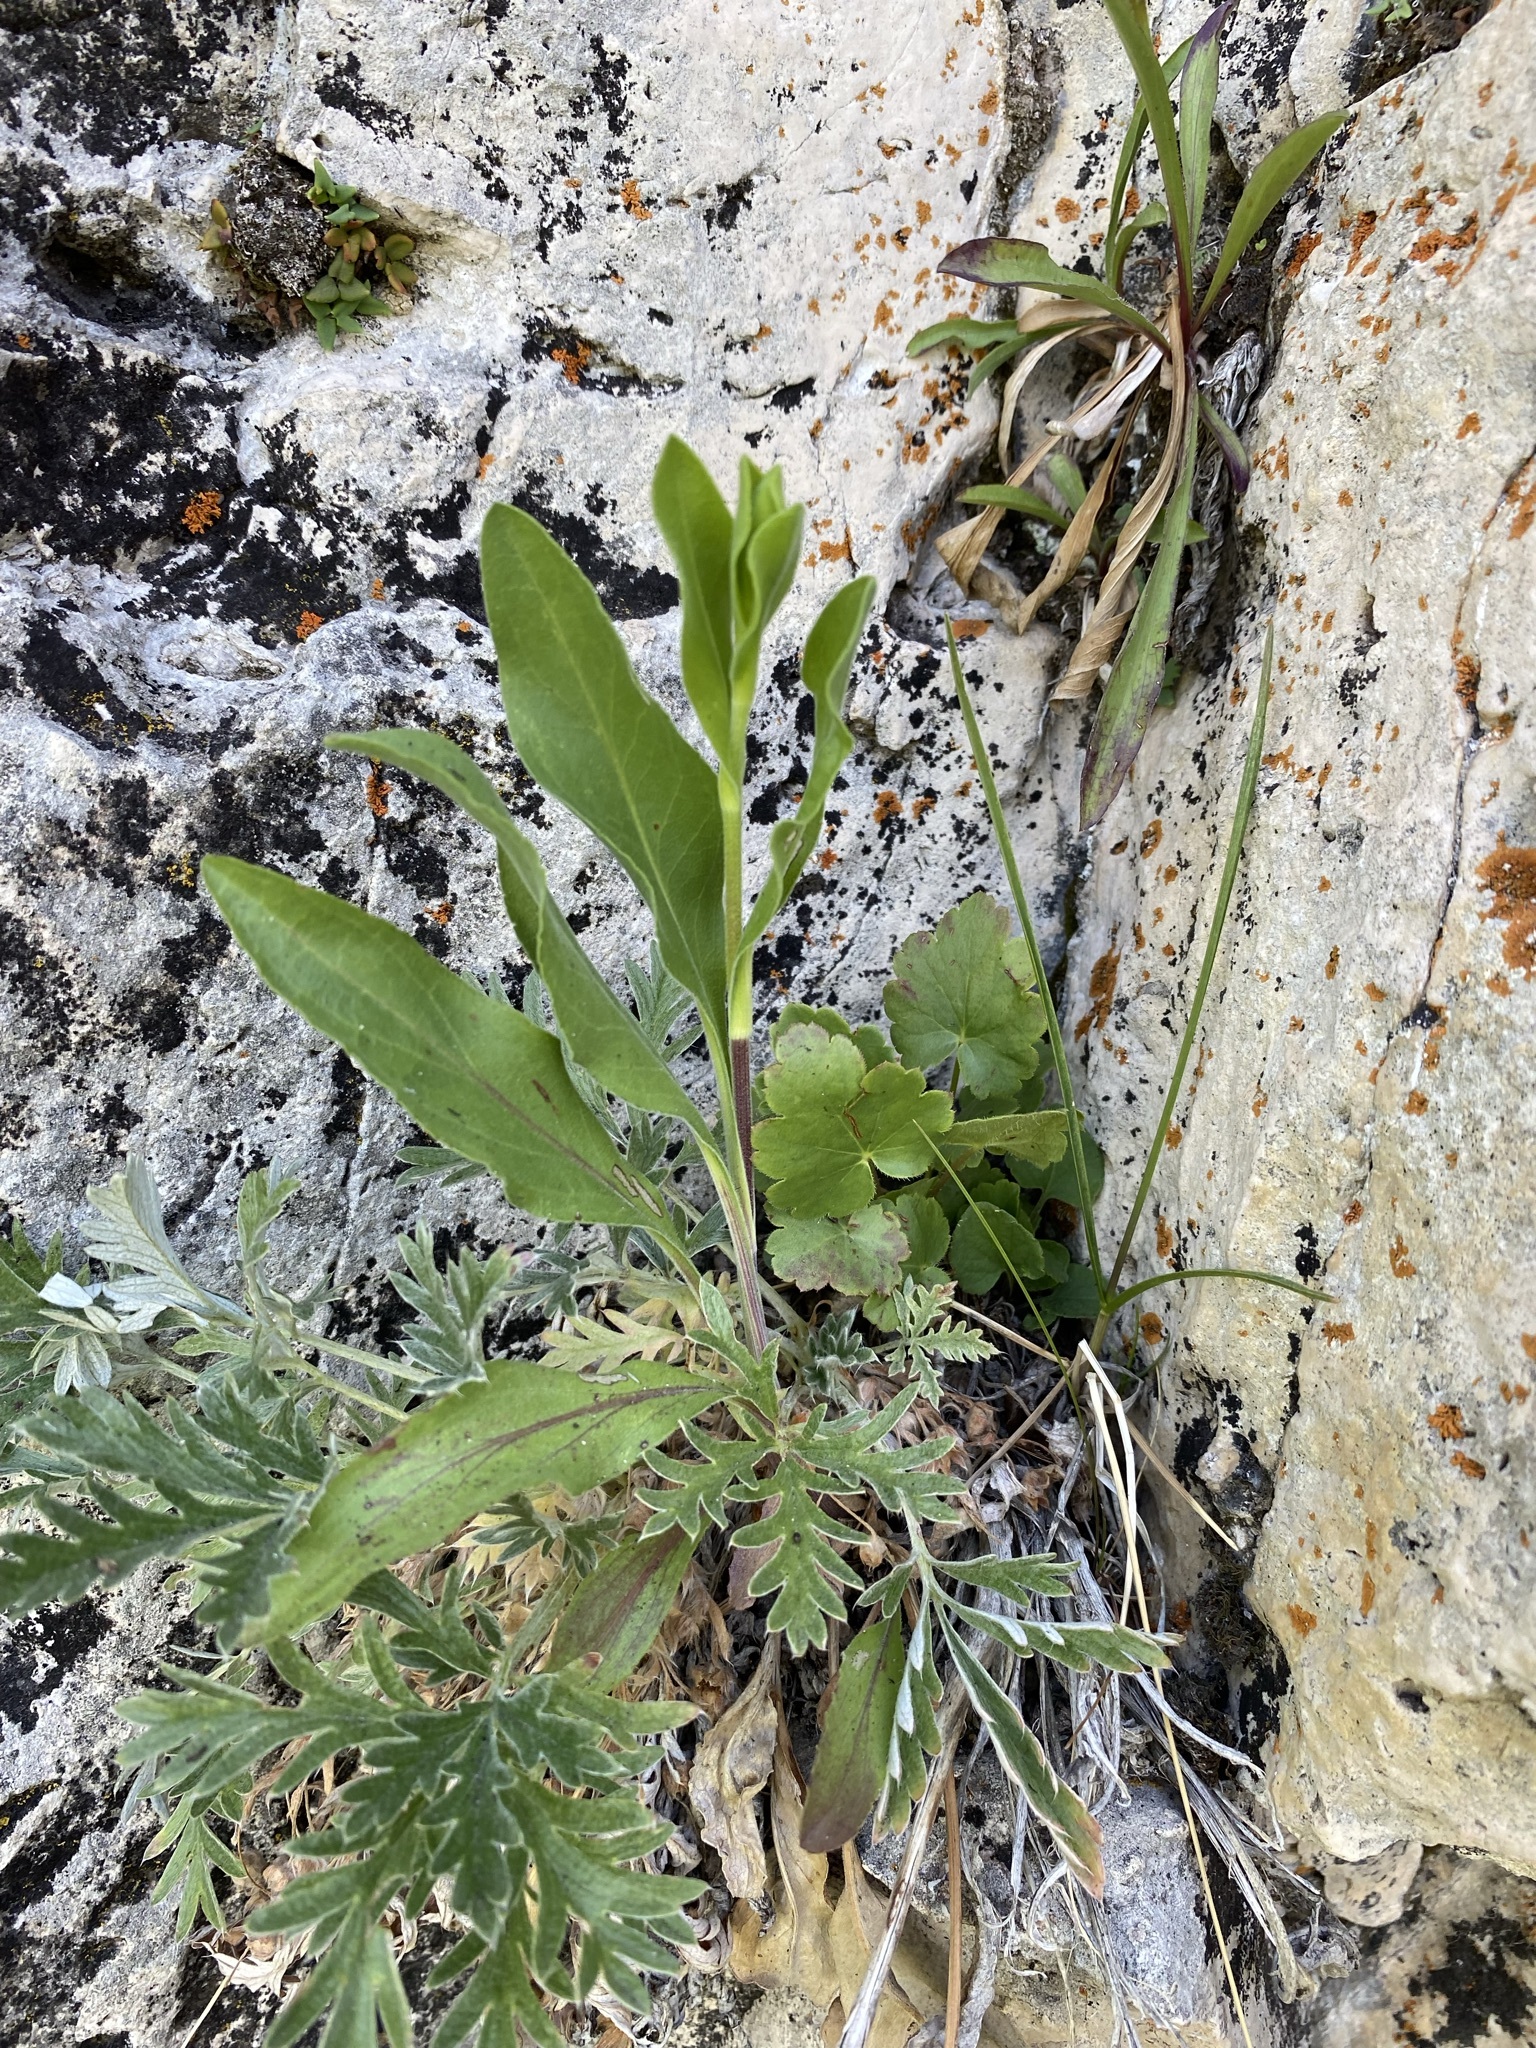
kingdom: Plantae
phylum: Tracheophyta
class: Magnoliopsida
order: Caryophyllales
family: Caryophyllaceae
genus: Silene
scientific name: Silene drummondii
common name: Drummond's catchfly
